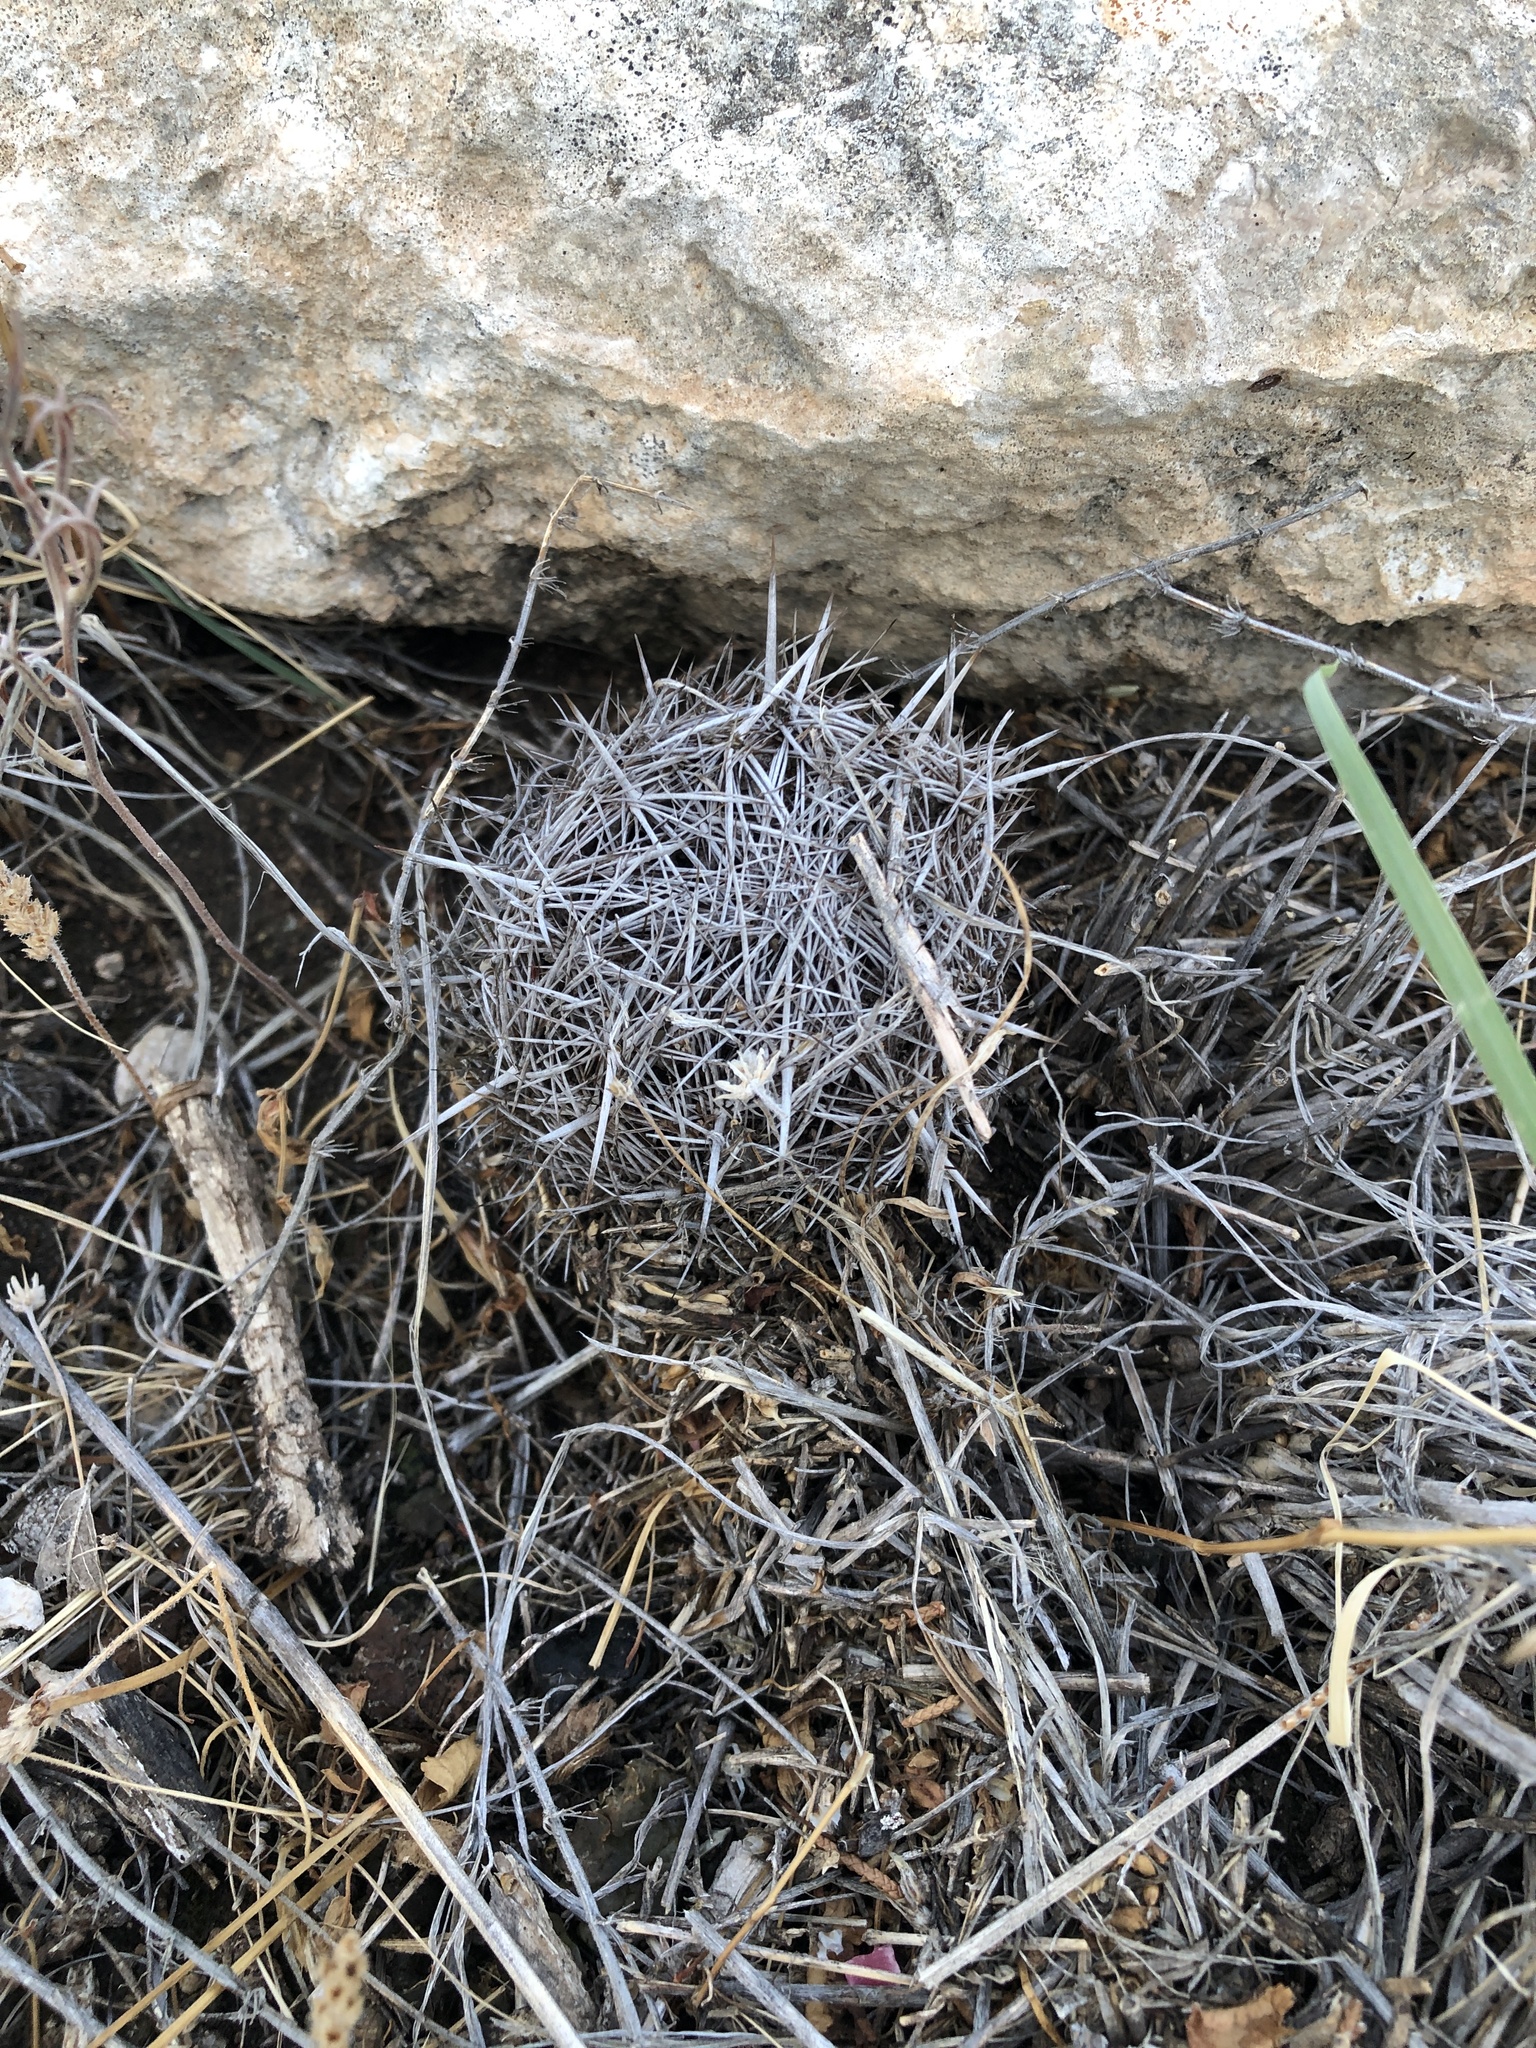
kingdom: Plantae
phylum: Tracheophyta
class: Magnoliopsida
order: Caryophyllales
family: Cactaceae
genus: Coryphantha
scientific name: Coryphantha echinus
